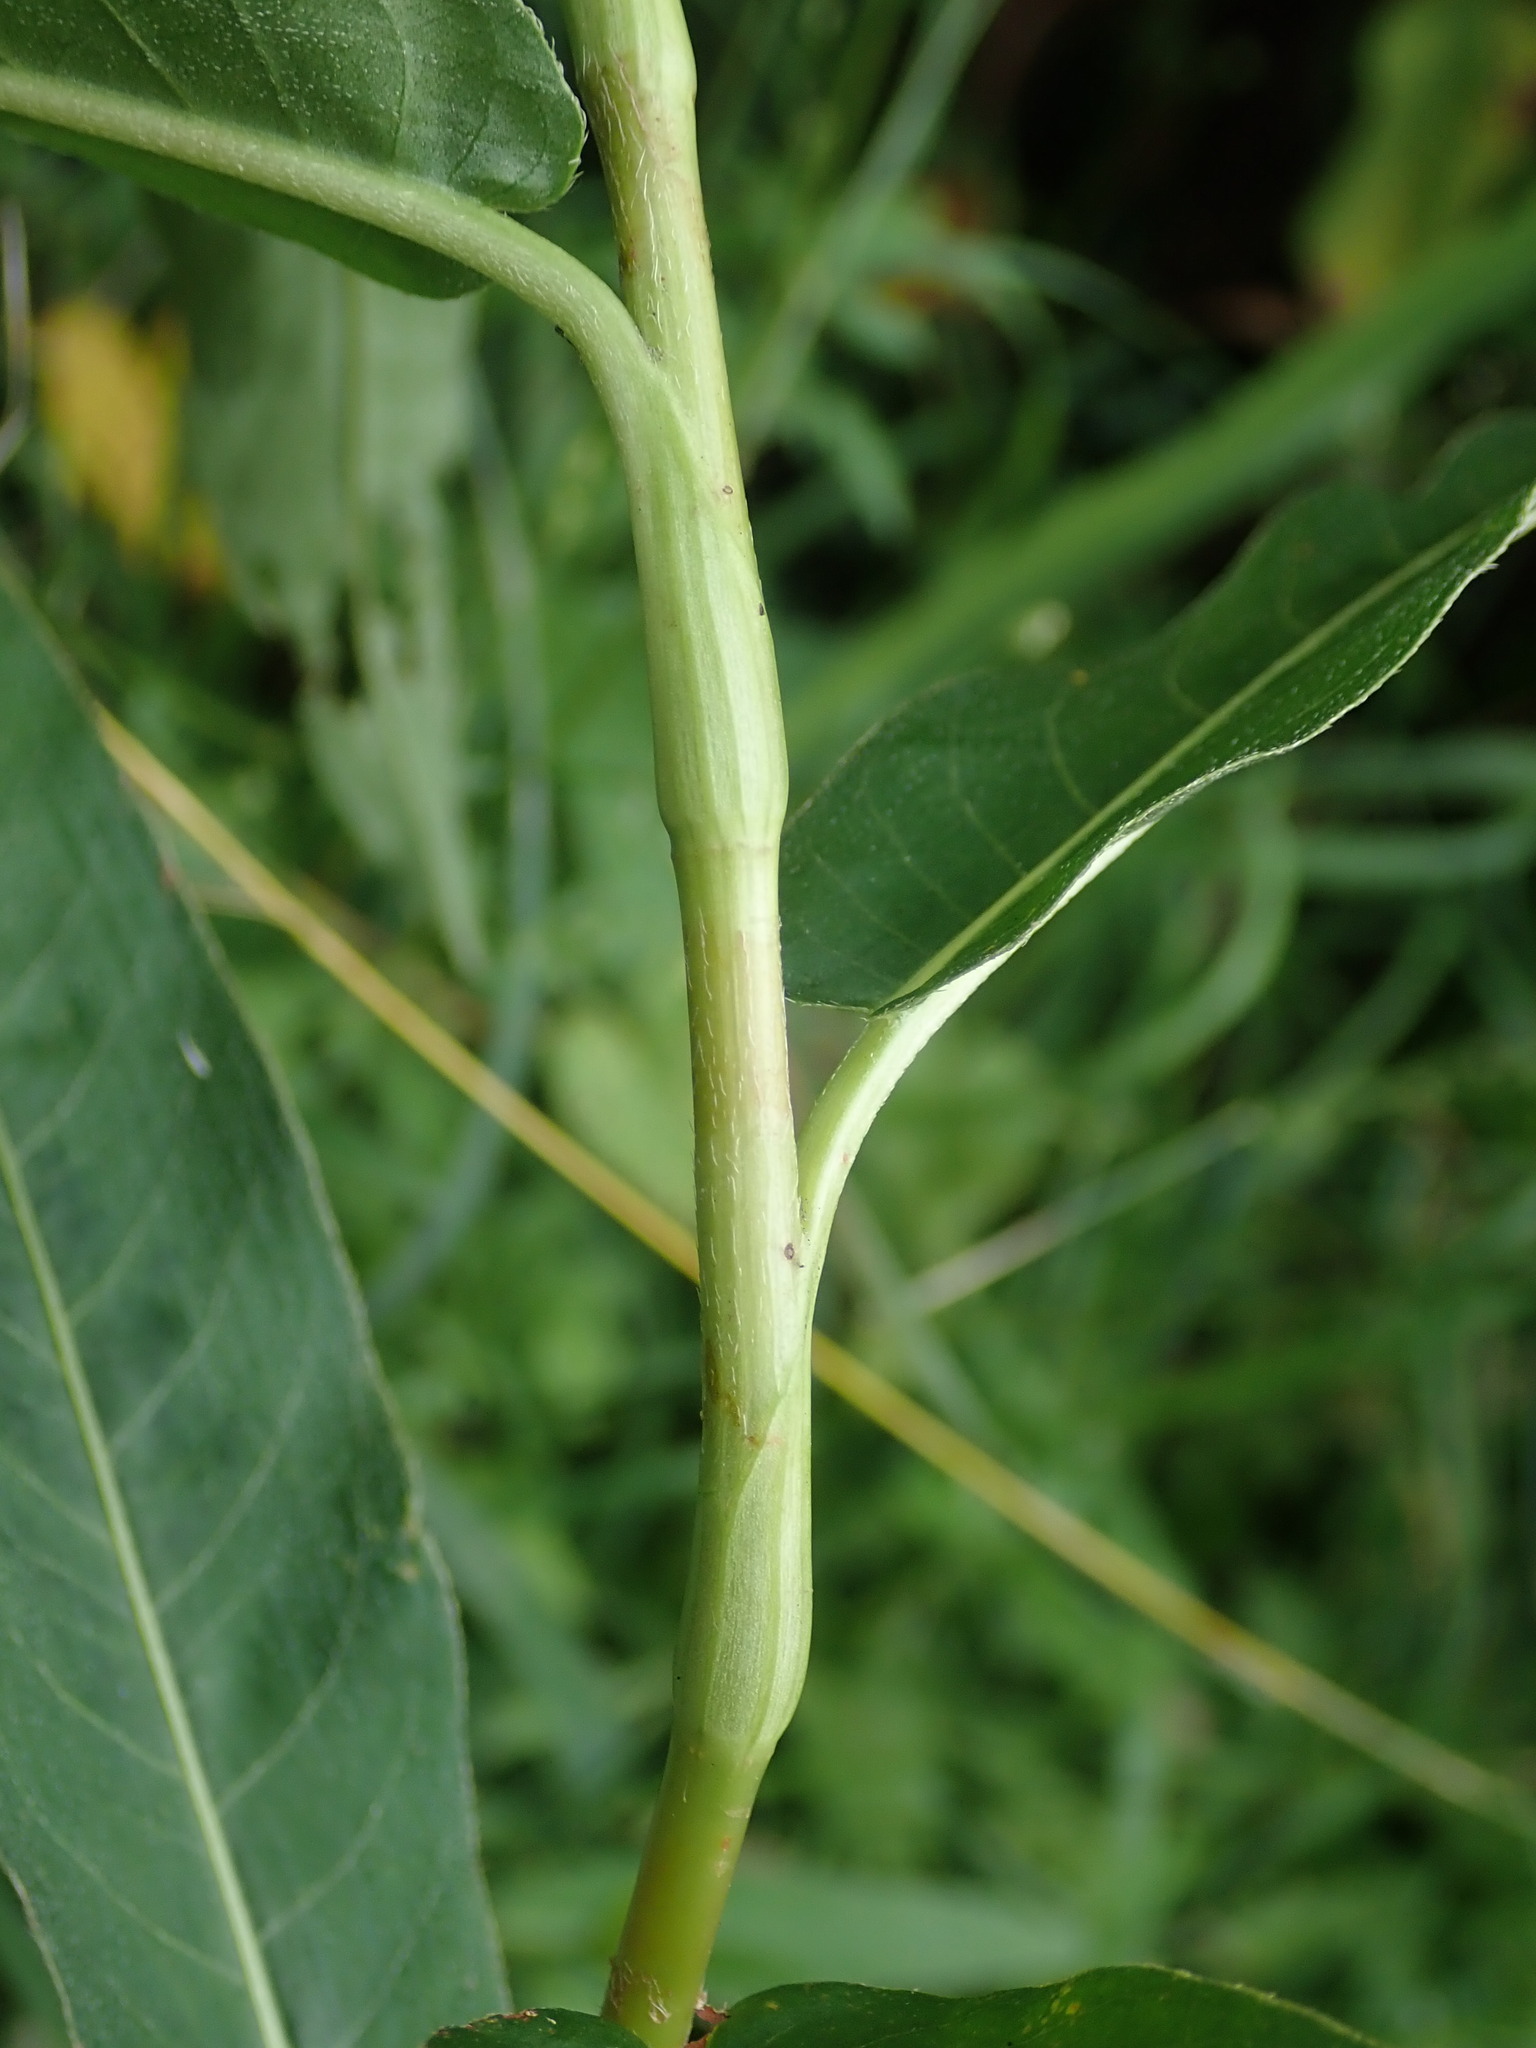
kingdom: Plantae
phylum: Tracheophyta
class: Magnoliopsida
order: Caryophyllales
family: Polygonaceae
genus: Persicaria
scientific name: Persicaria amphibia
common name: Amphibious bistort
